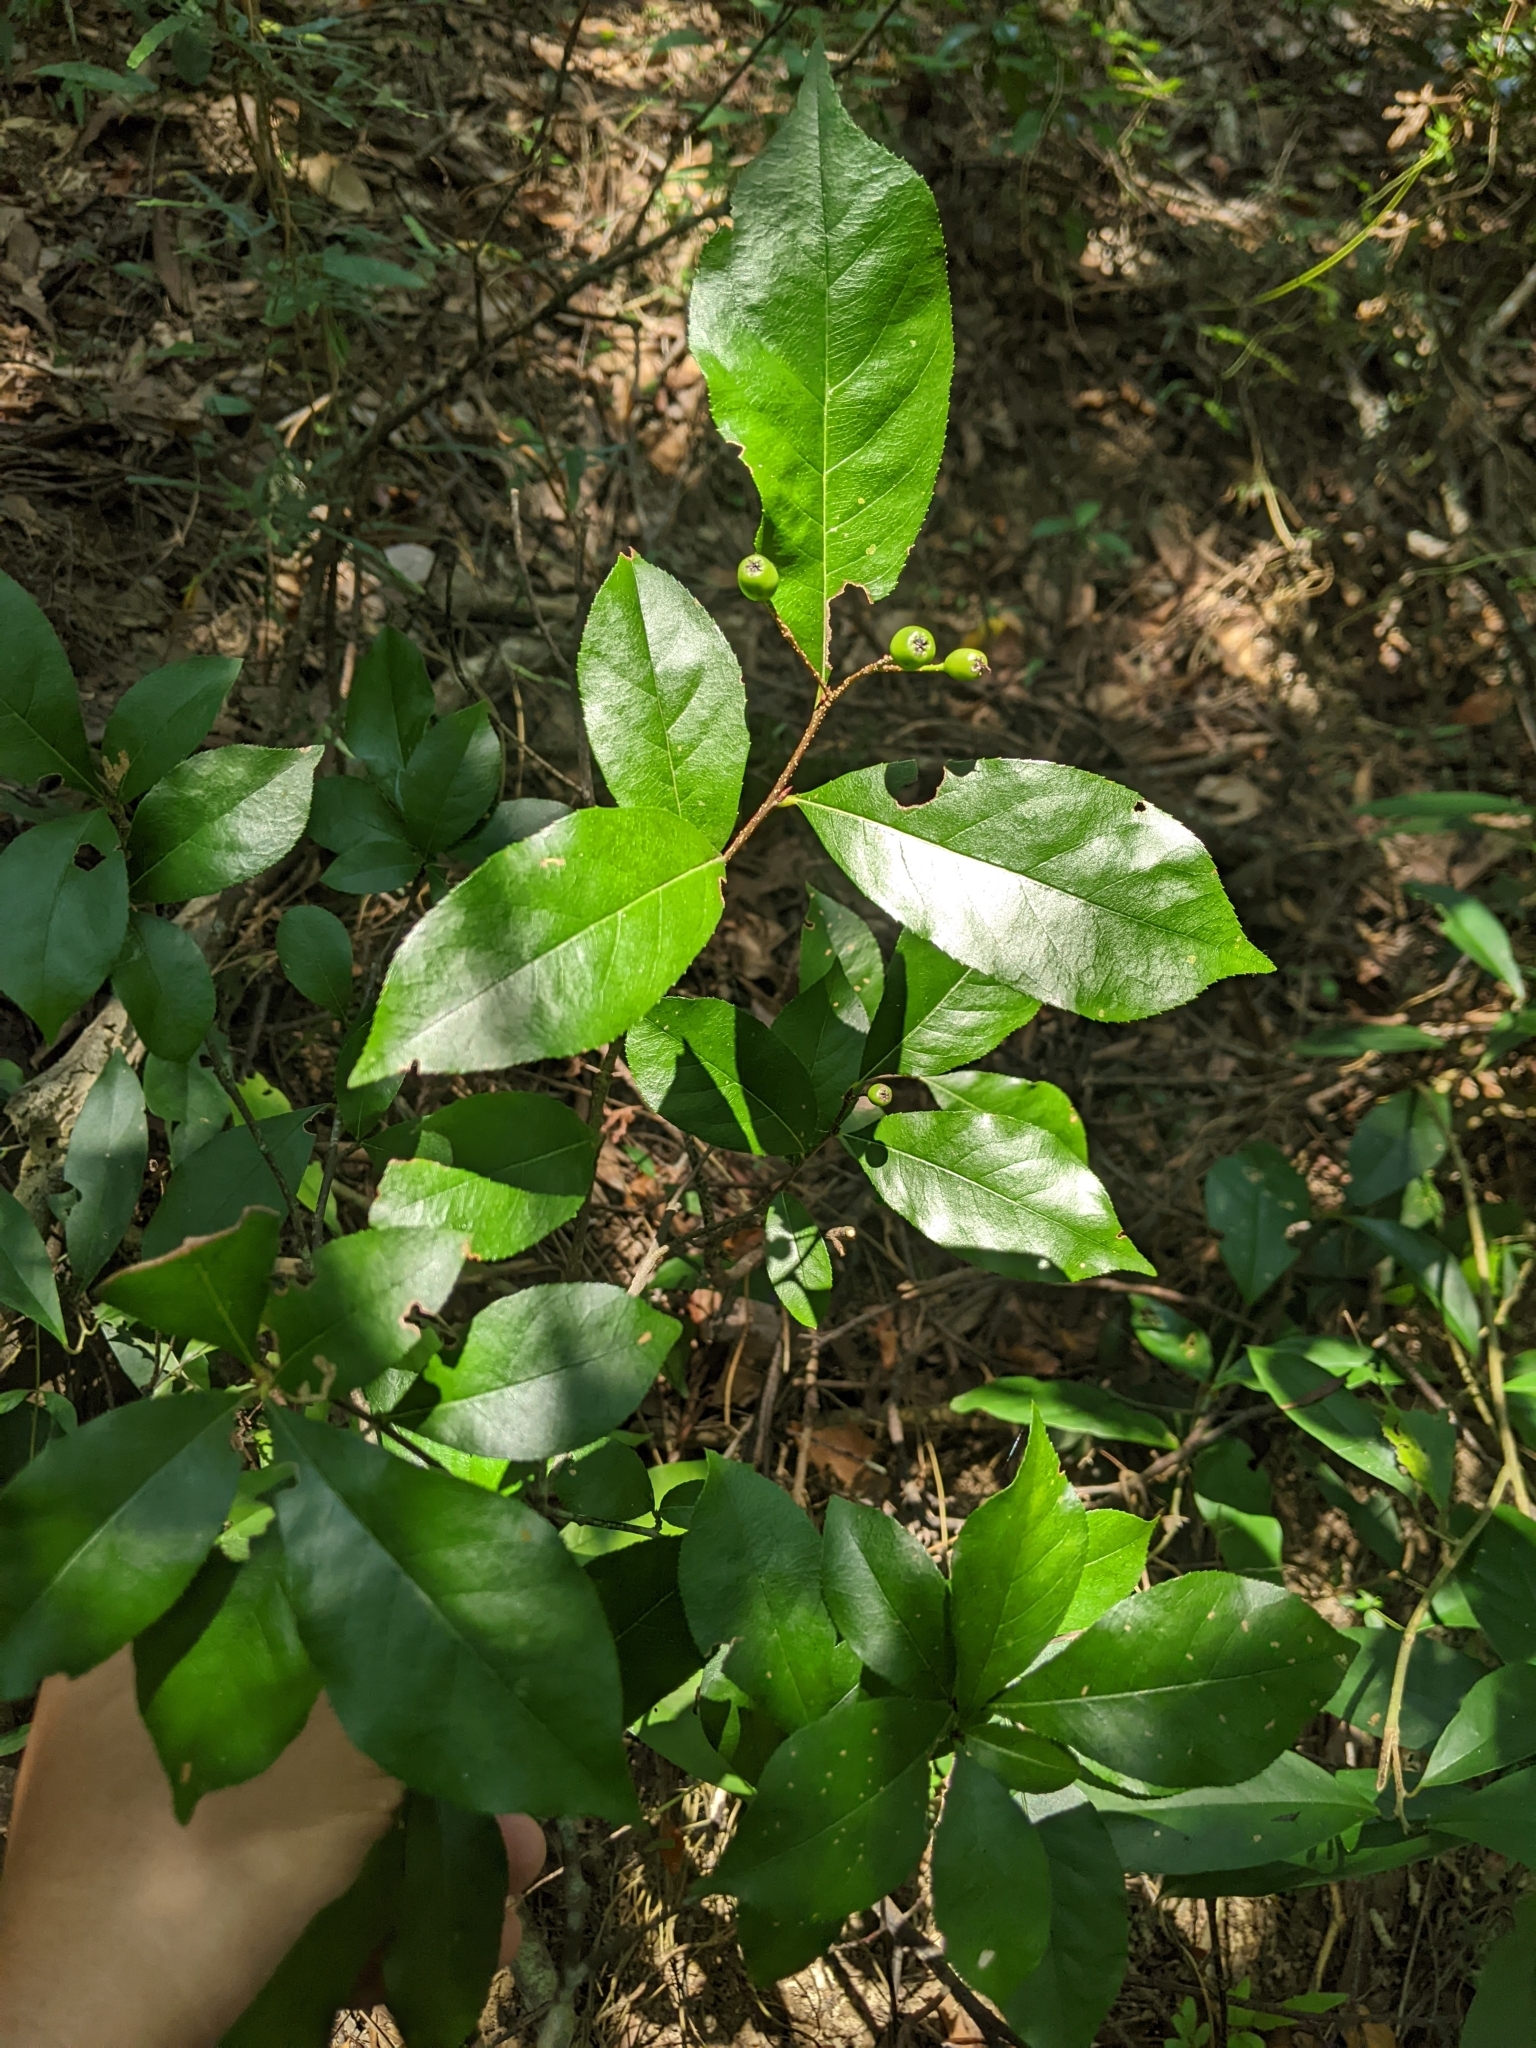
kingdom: Plantae
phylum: Tracheophyta
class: Magnoliopsida
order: Rosales
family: Rosaceae
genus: Pourthiaea
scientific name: Pourthiaea arguta
